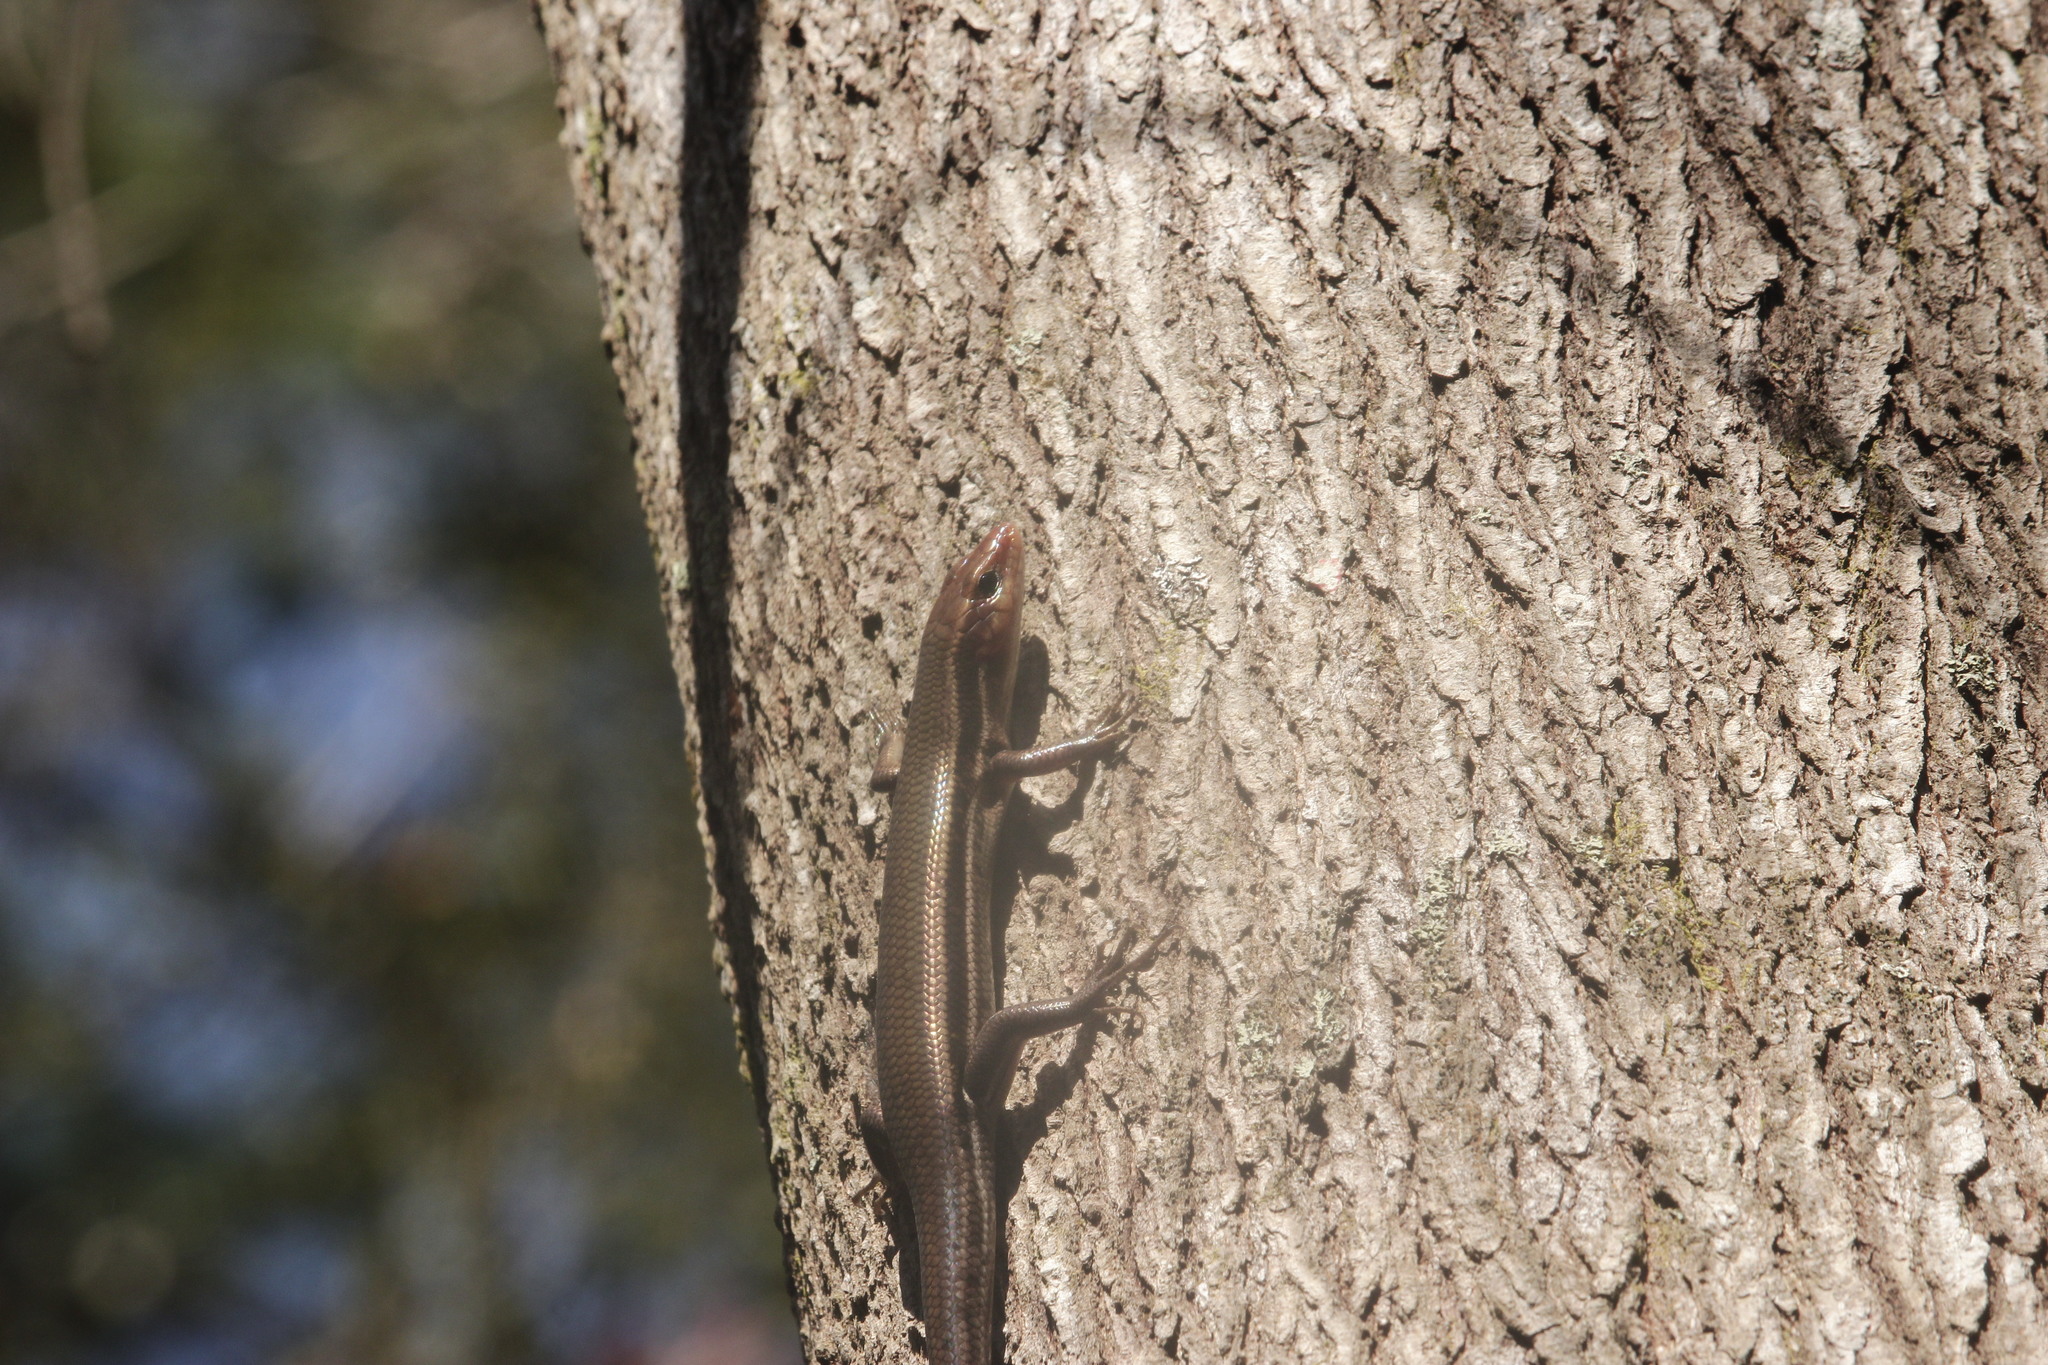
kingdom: Animalia
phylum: Chordata
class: Squamata
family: Scincidae
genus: Plestiodon
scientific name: Plestiodon inexpectatus
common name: Southeastern five-lined skink
